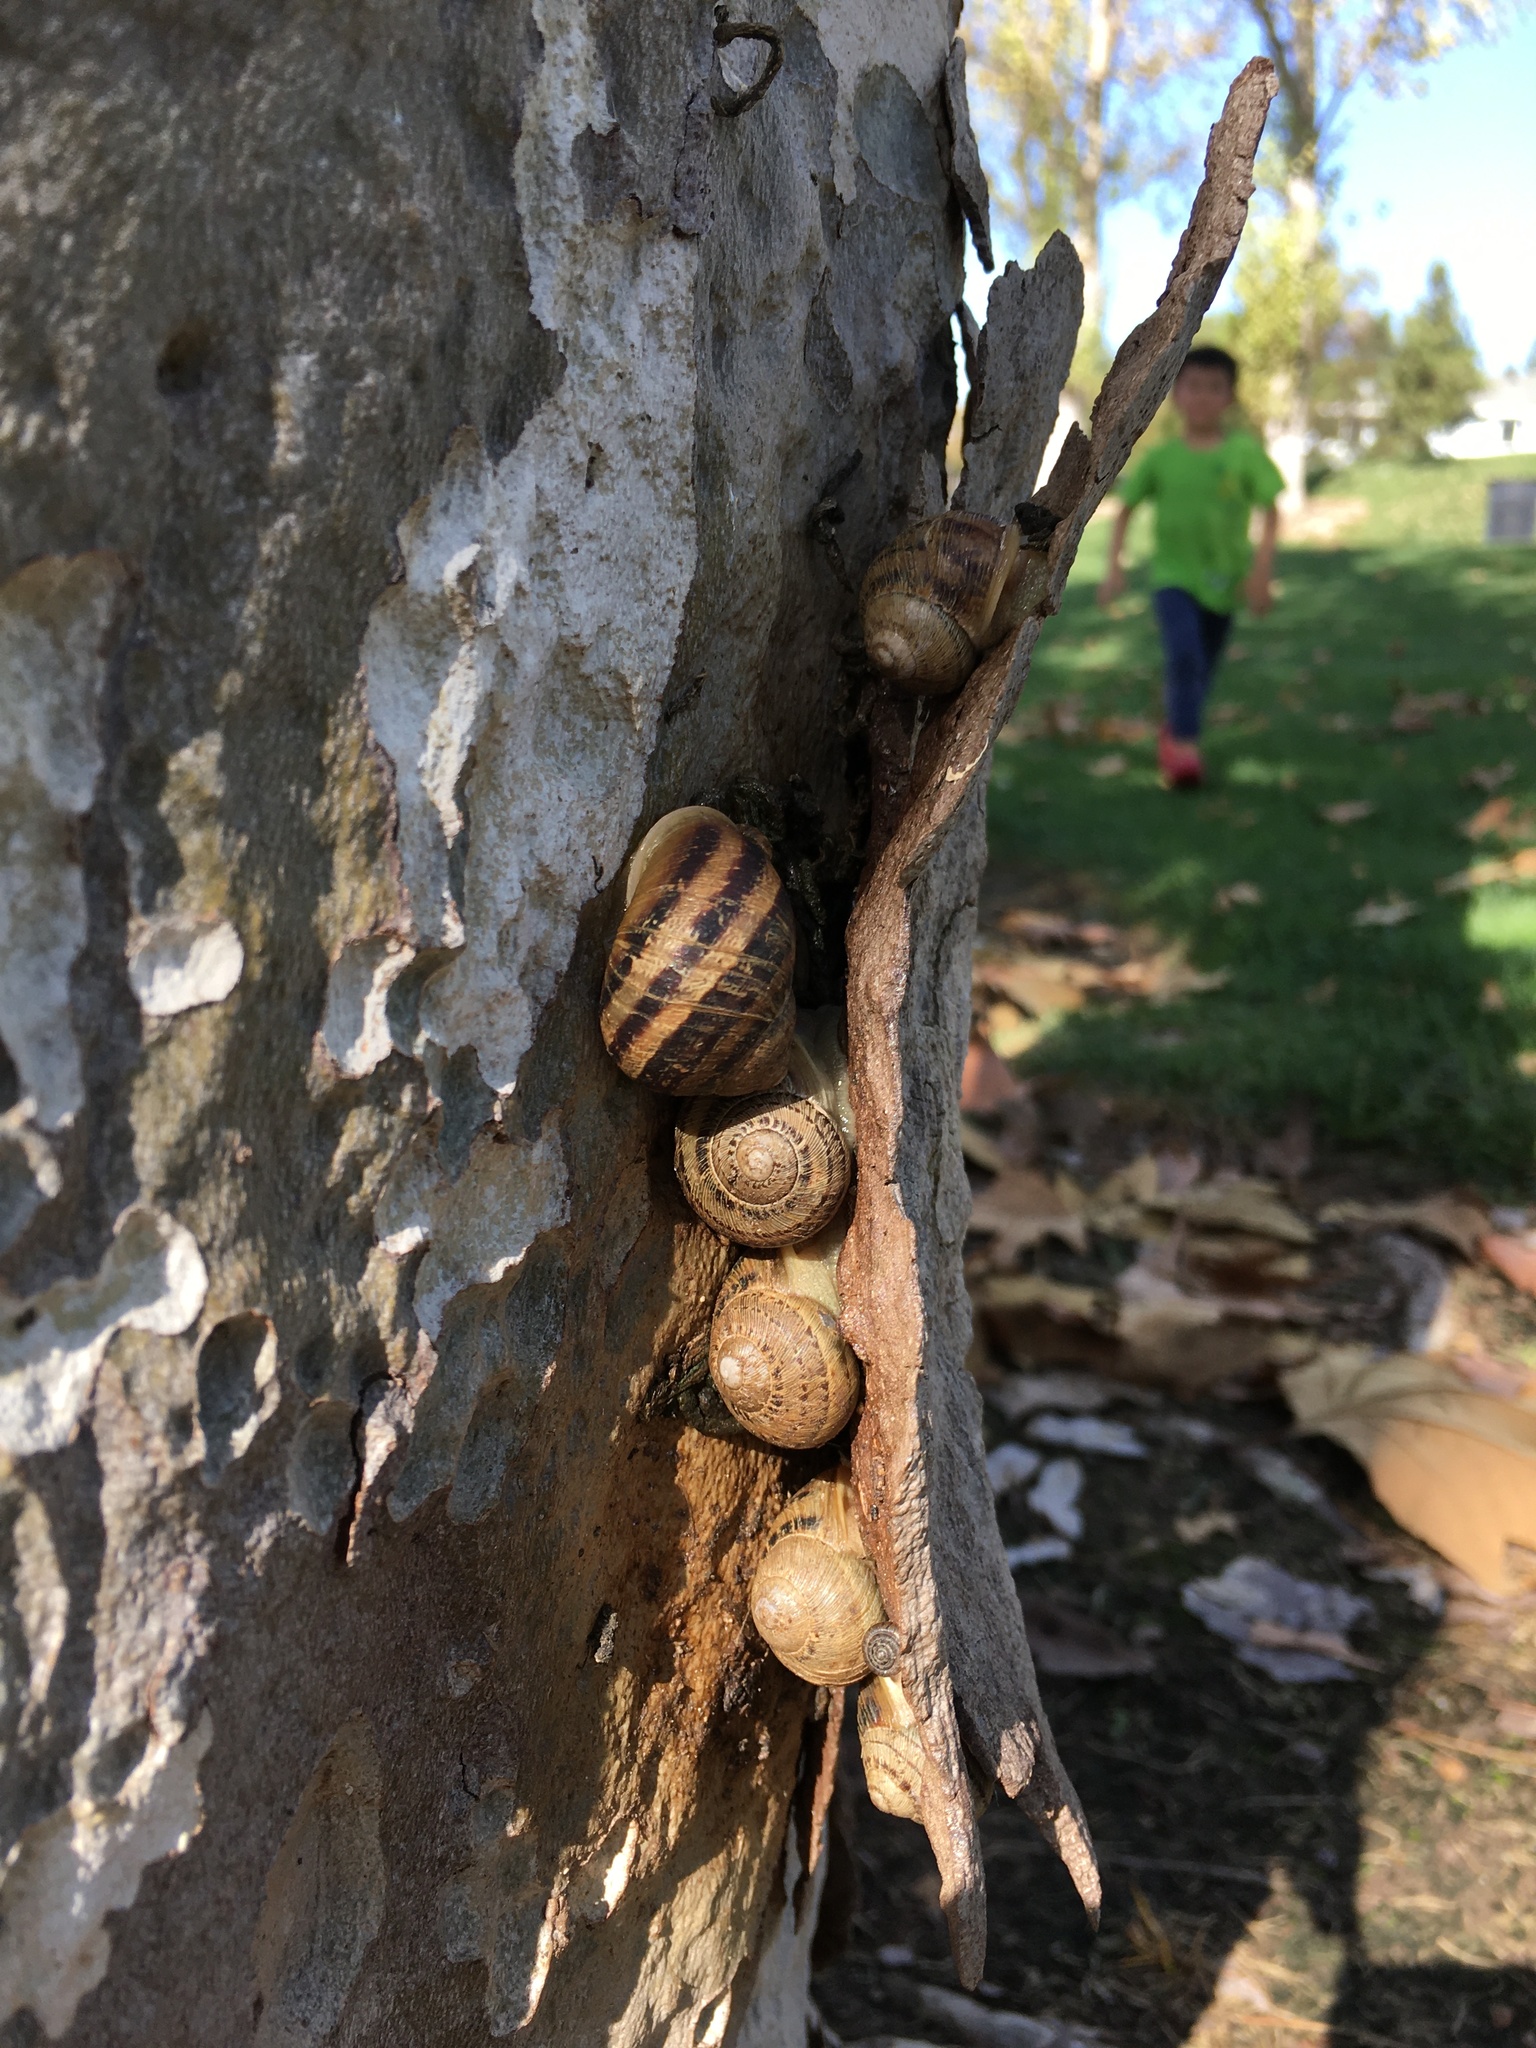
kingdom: Animalia
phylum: Mollusca
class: Gastropoda
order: Stylommatophora
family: Polygyridae
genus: Polygyra
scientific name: Polygyra cereolus
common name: Southern flatcone snail
